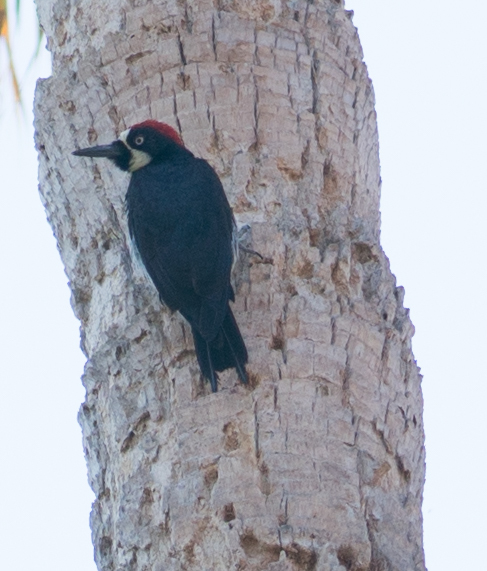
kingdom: Animalia
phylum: Chordata
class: Aves
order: Piciformes
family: Picidae
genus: Melanerpes
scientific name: Melanerpes formicivorus
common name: Acorn woodpecker
